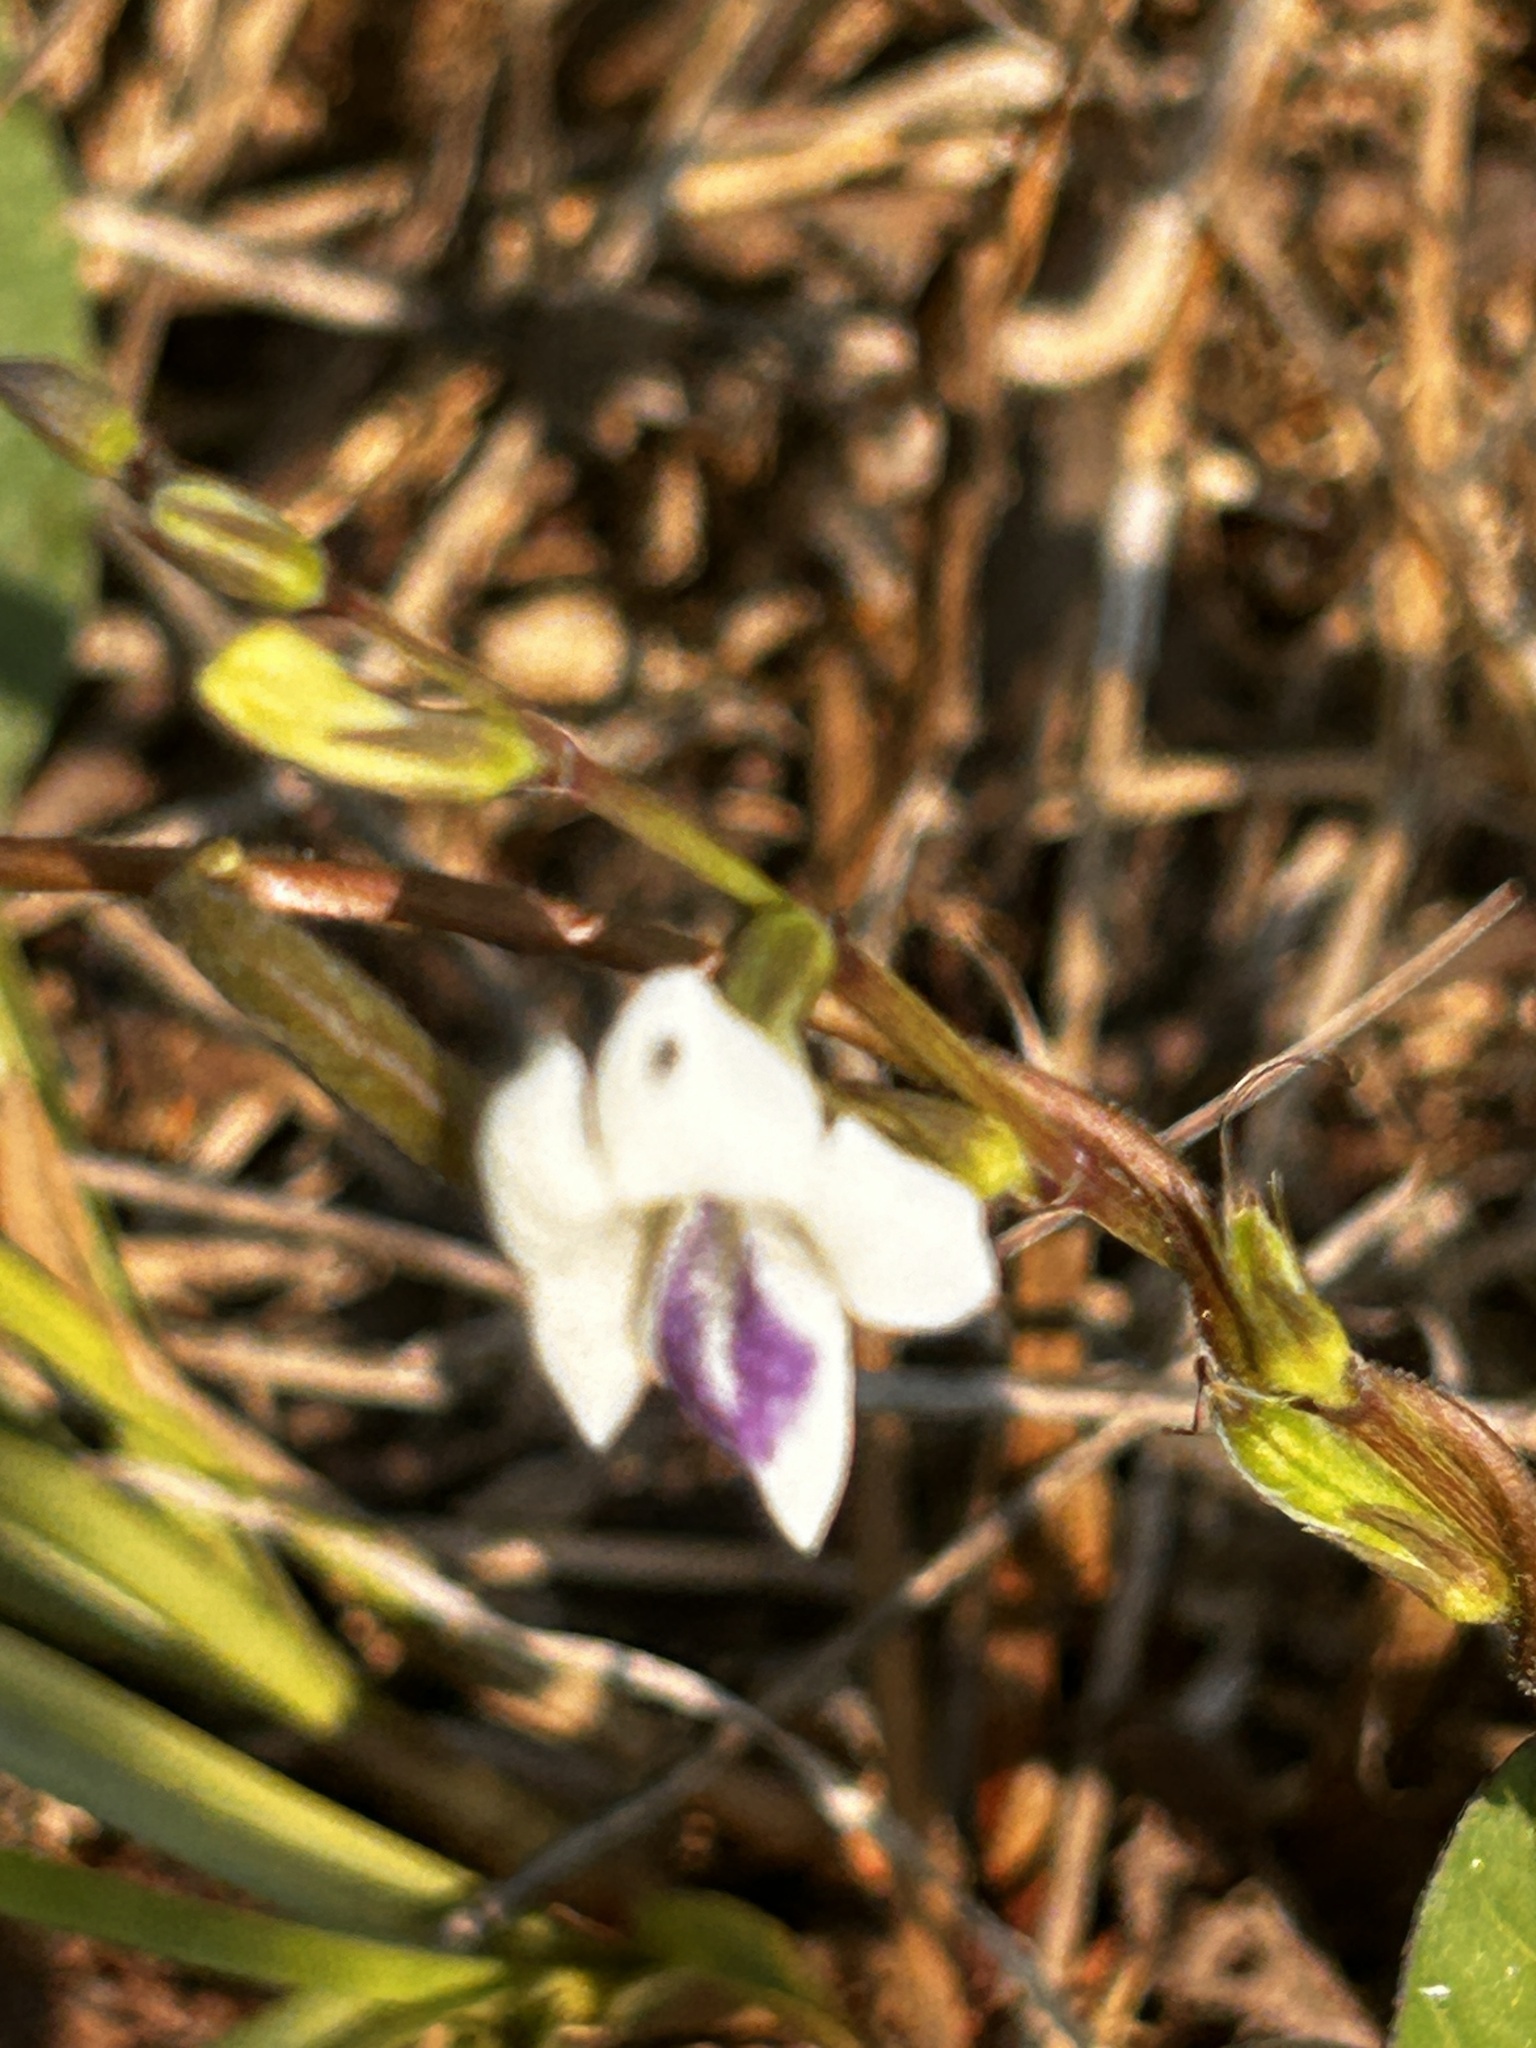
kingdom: Plantae
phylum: Tracheophyta
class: Magnoliopsida
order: Lamiales
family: Acanthaceae
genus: Asystasia
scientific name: Asystasia intrusa
